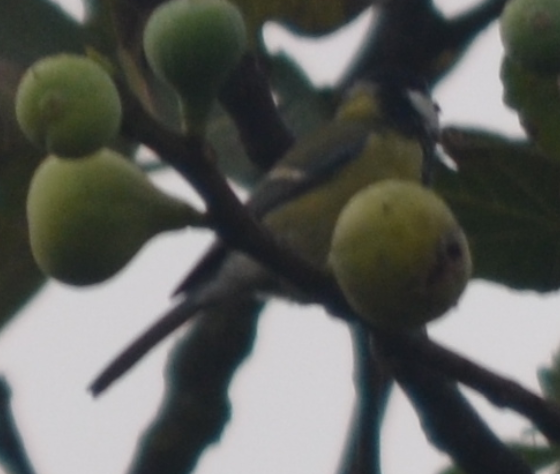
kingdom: Animalia
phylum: Chordata
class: Aves
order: Passeriformes
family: Paridae
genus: Parus
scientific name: Parus major
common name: Great tit
